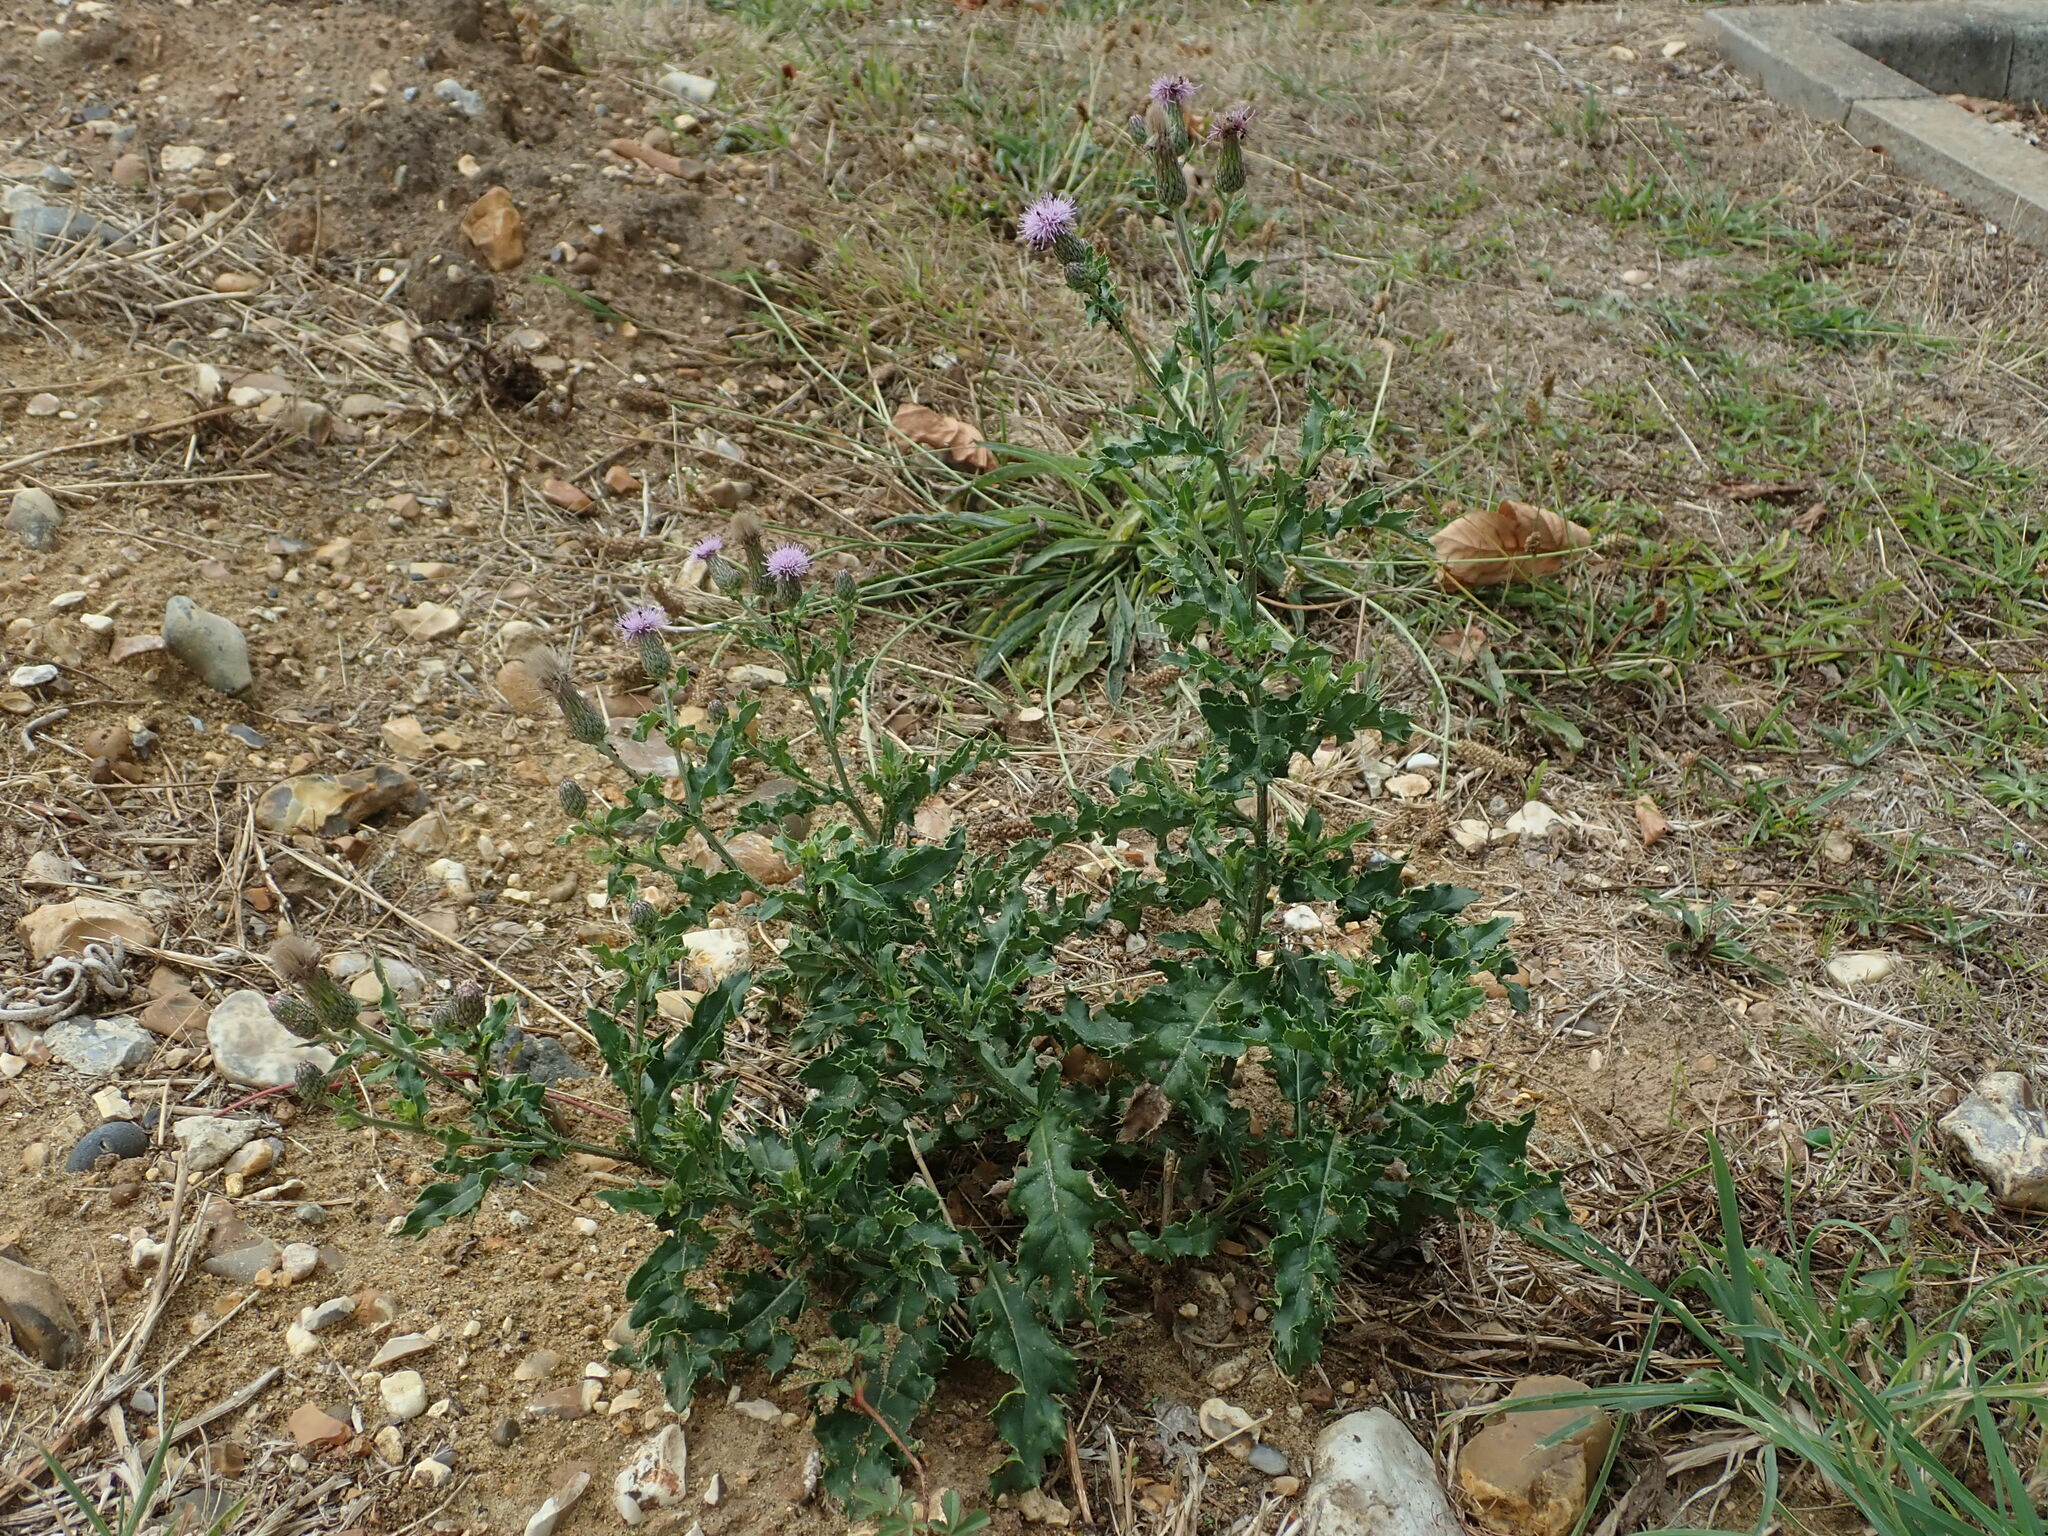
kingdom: Plantae
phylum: Tracheophyta
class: Magnoliopsida
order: Asterales
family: Asteraceae
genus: Cirsium
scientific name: Cirsium arvense
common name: Creeping thistle
